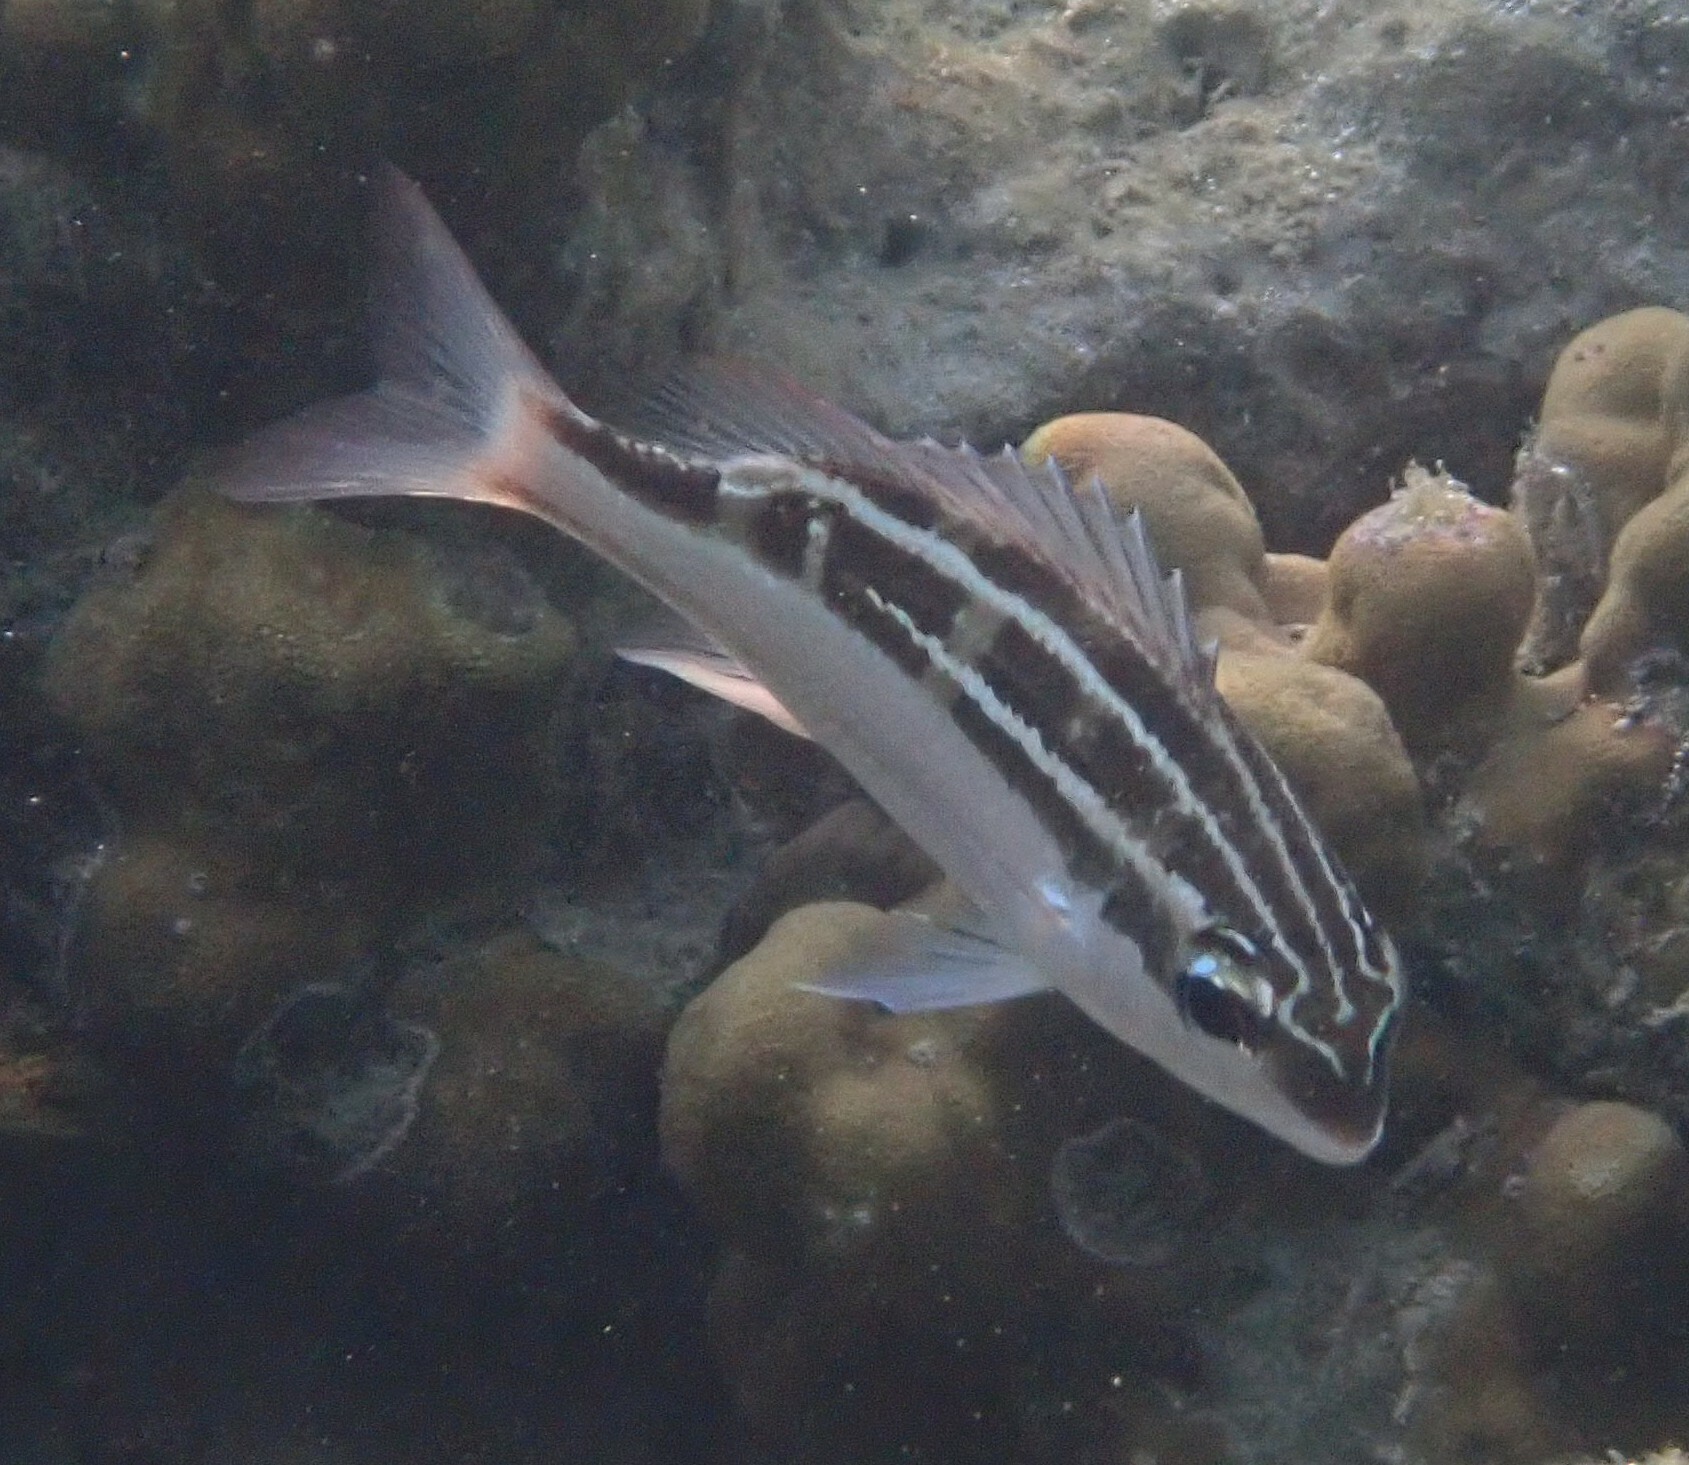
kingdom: Animalia
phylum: Chordata
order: Perciformes
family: Nemipteridae
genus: Scolopsis
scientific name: Scolopsis lineata
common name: Striped monocle bream
